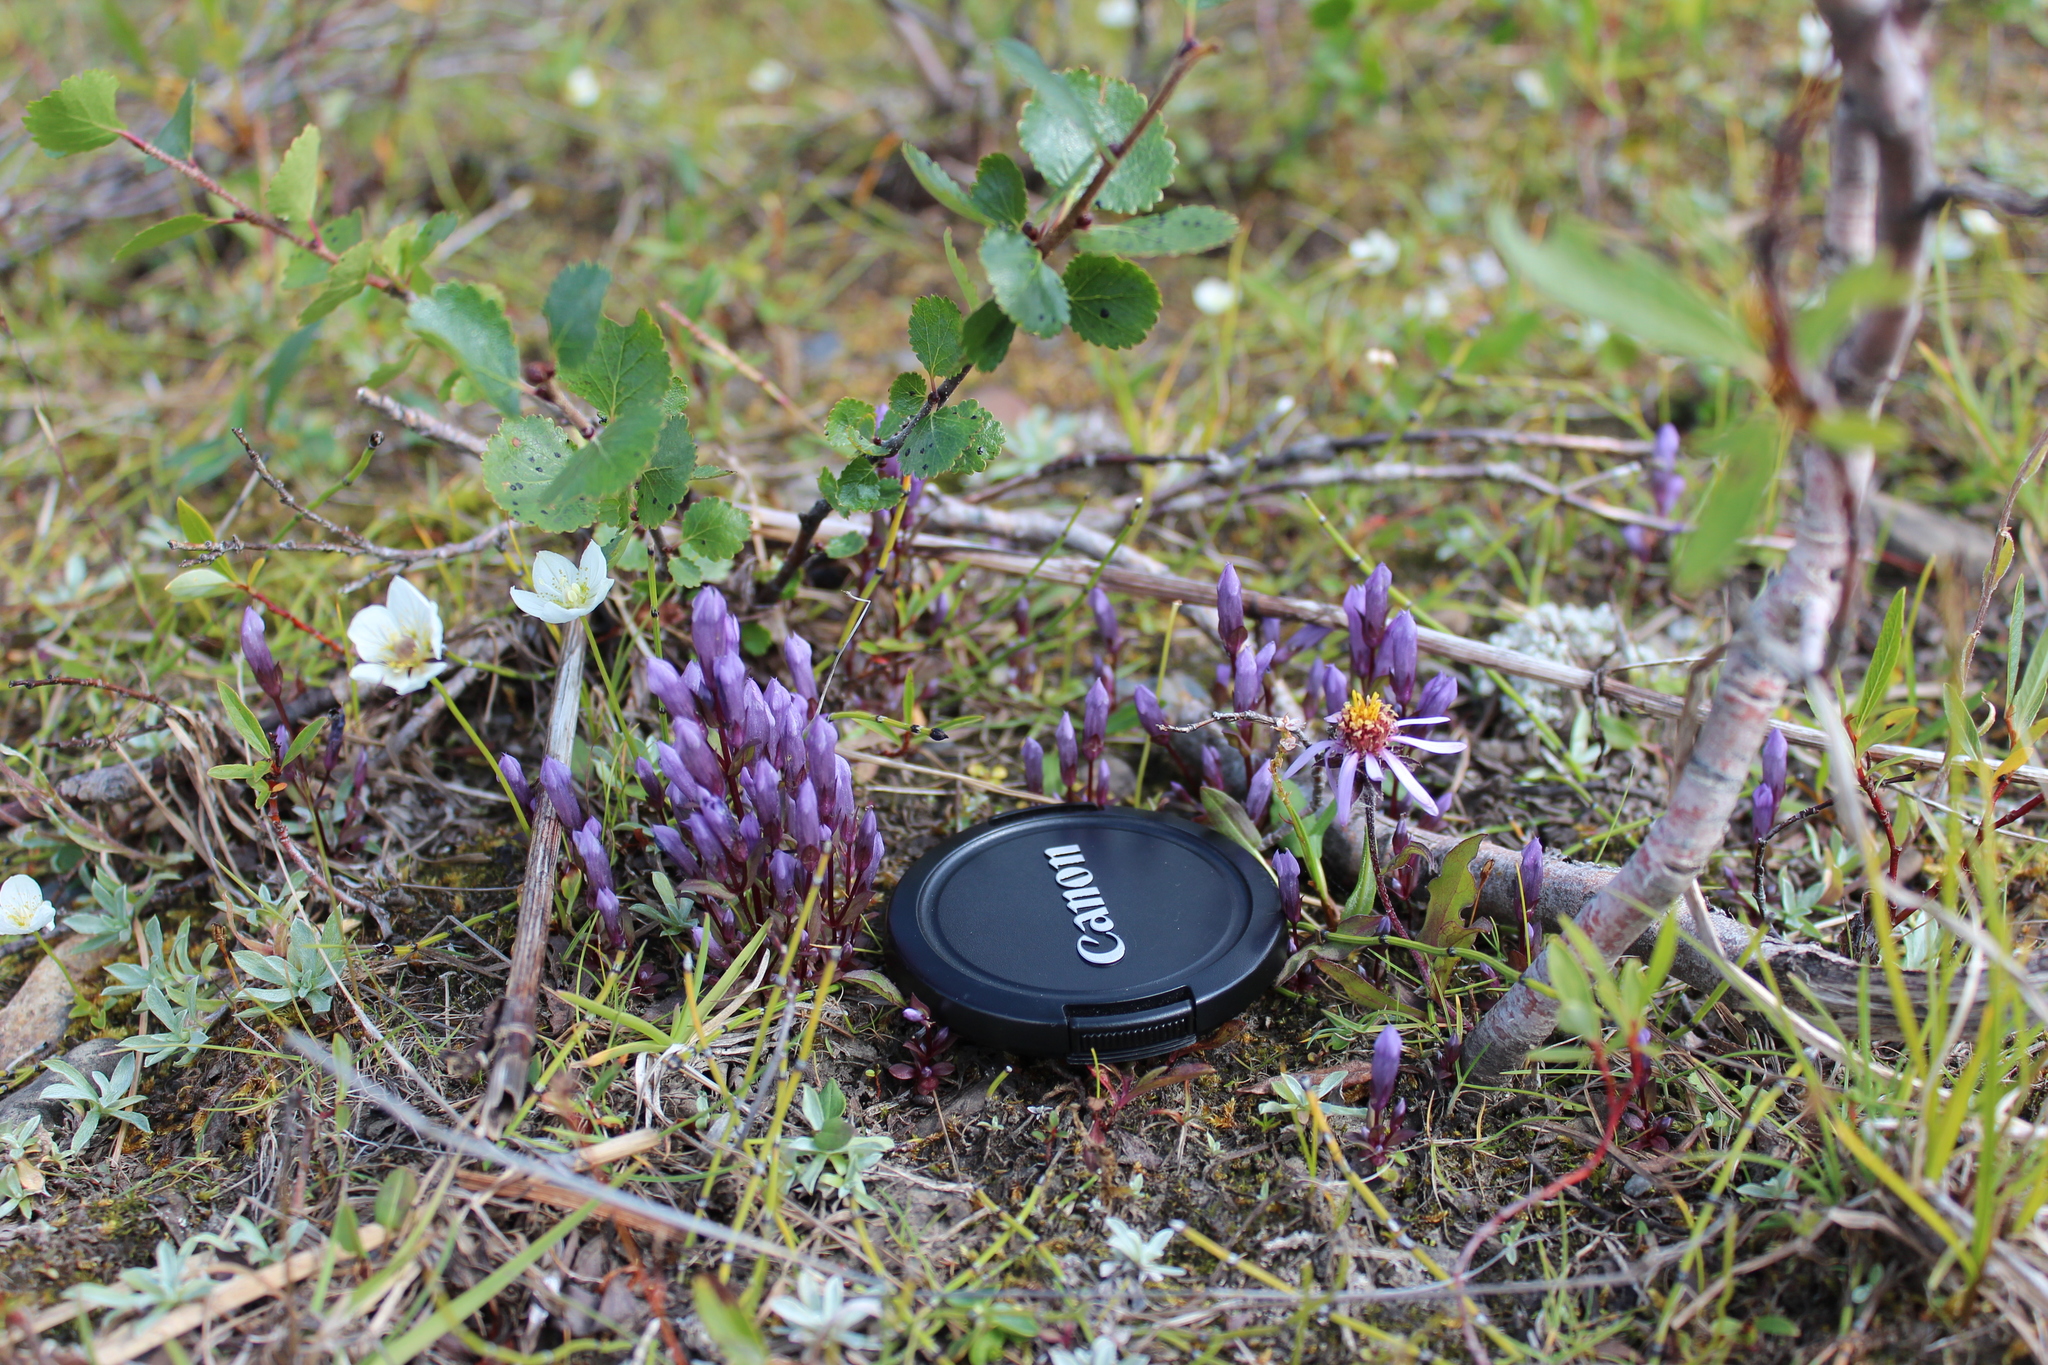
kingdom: Plantae
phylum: Tracheophyta
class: Magnoliopsida
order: Fagales
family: Betulaceae
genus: Betula
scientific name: Betula nana
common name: Arctic dwarf birch
